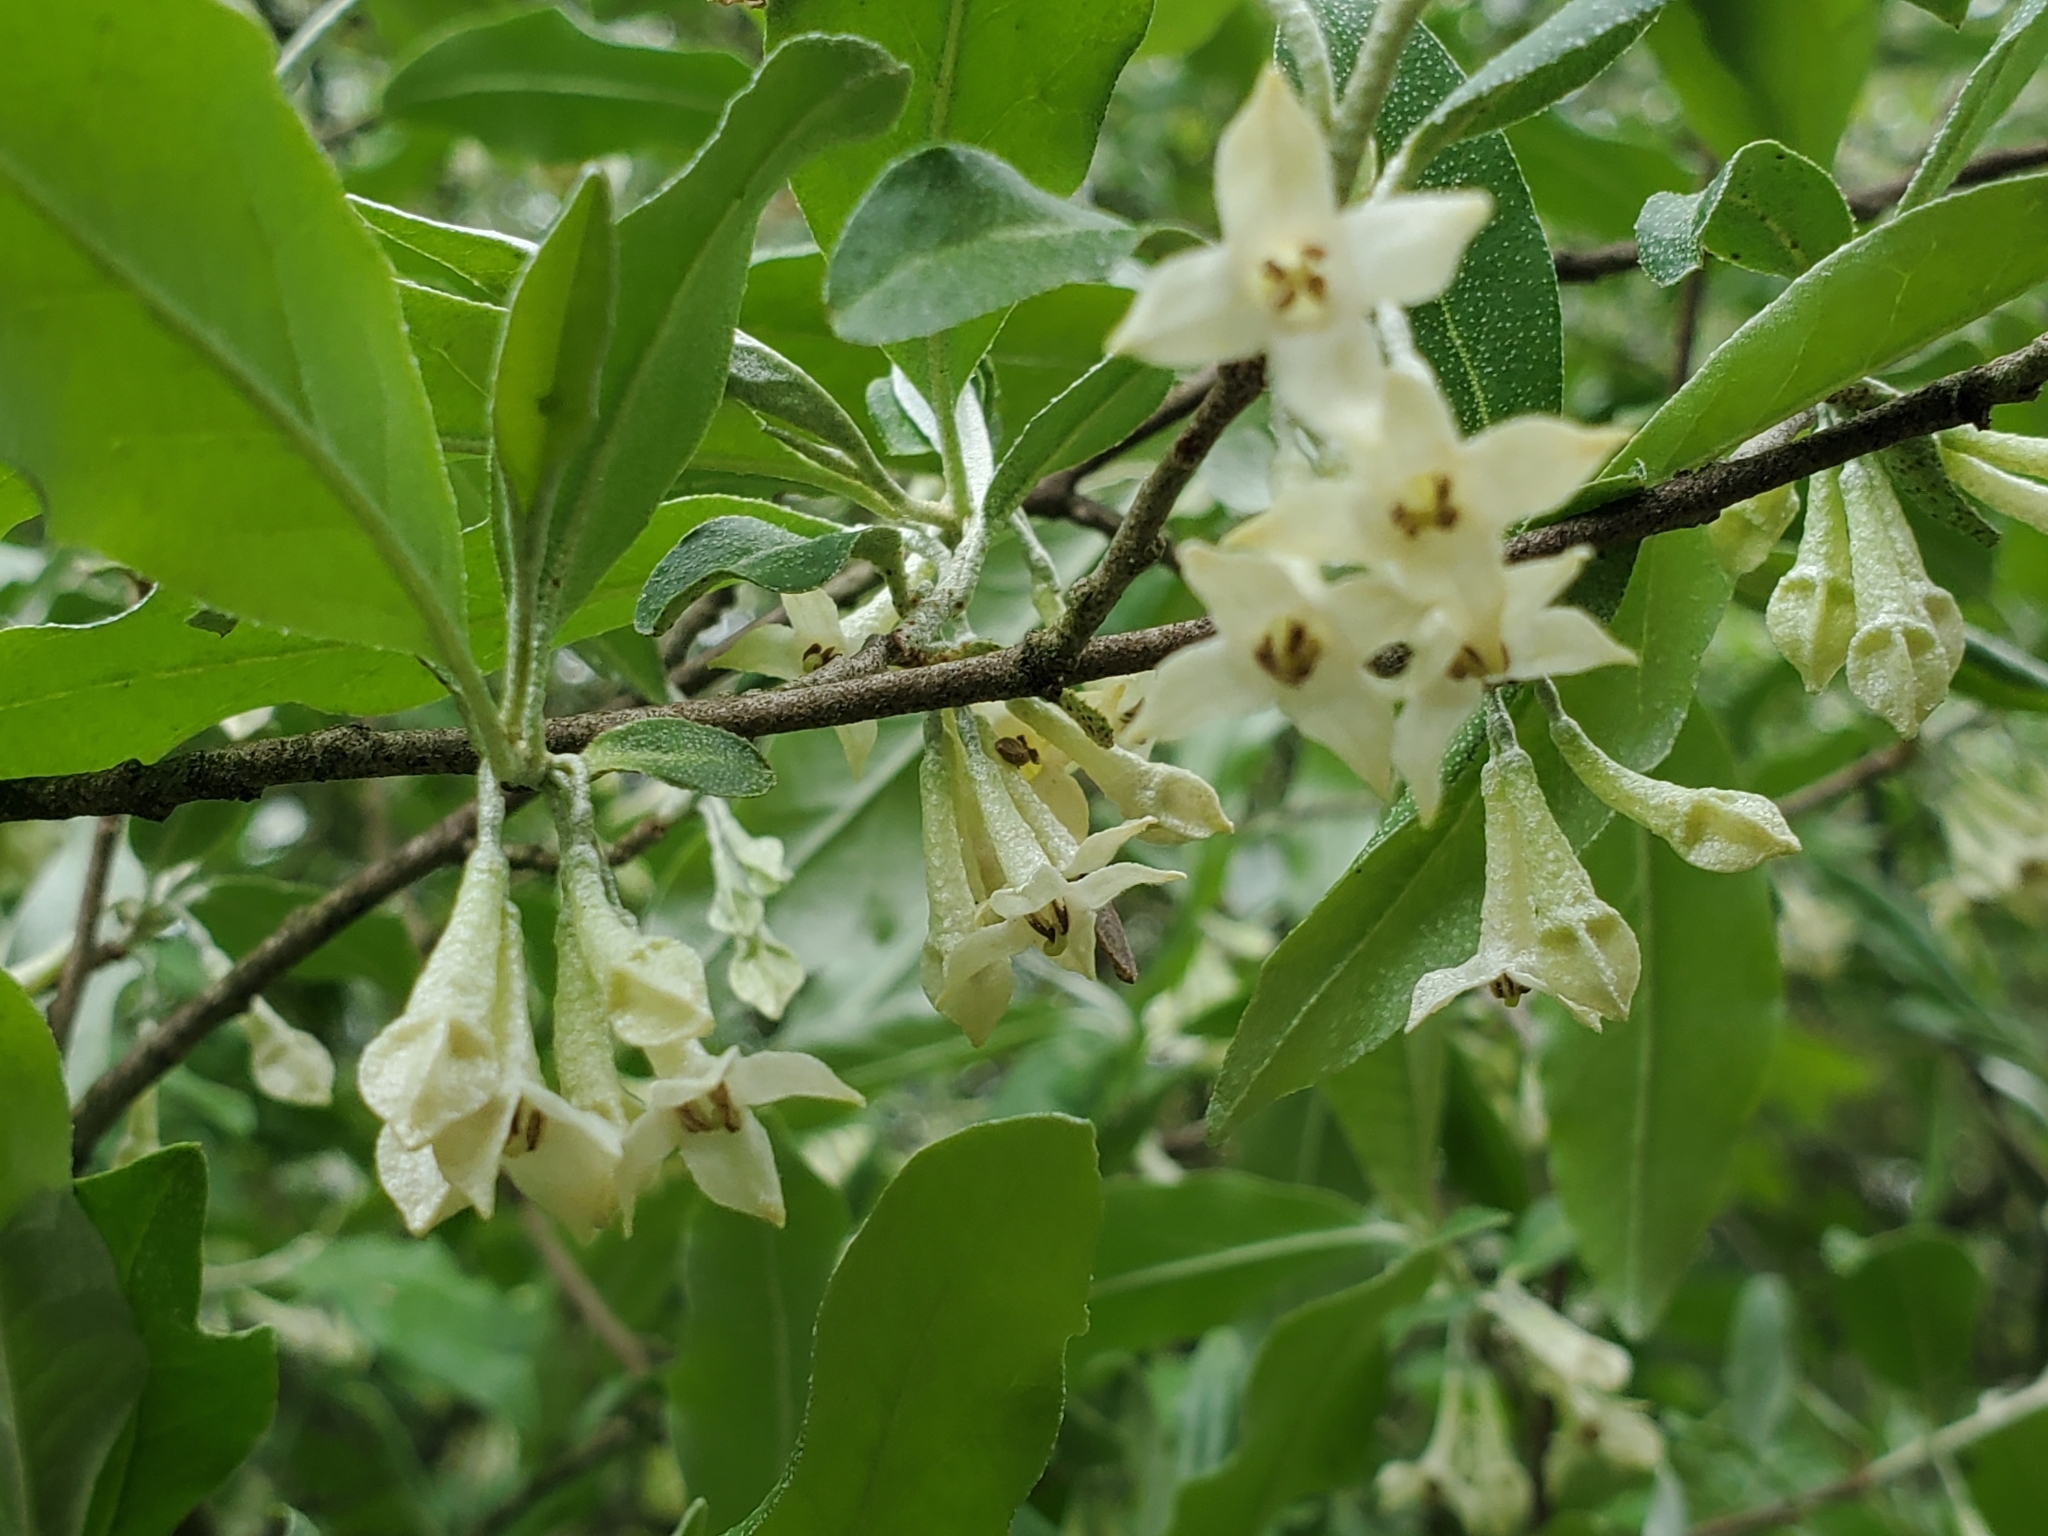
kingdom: Plantae
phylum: Tracheophyta
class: Magnoliopsida
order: Rosales
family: Elaeagnaceae
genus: Elaeagnus
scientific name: Elaeagnus umbellata
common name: Autumn olive
